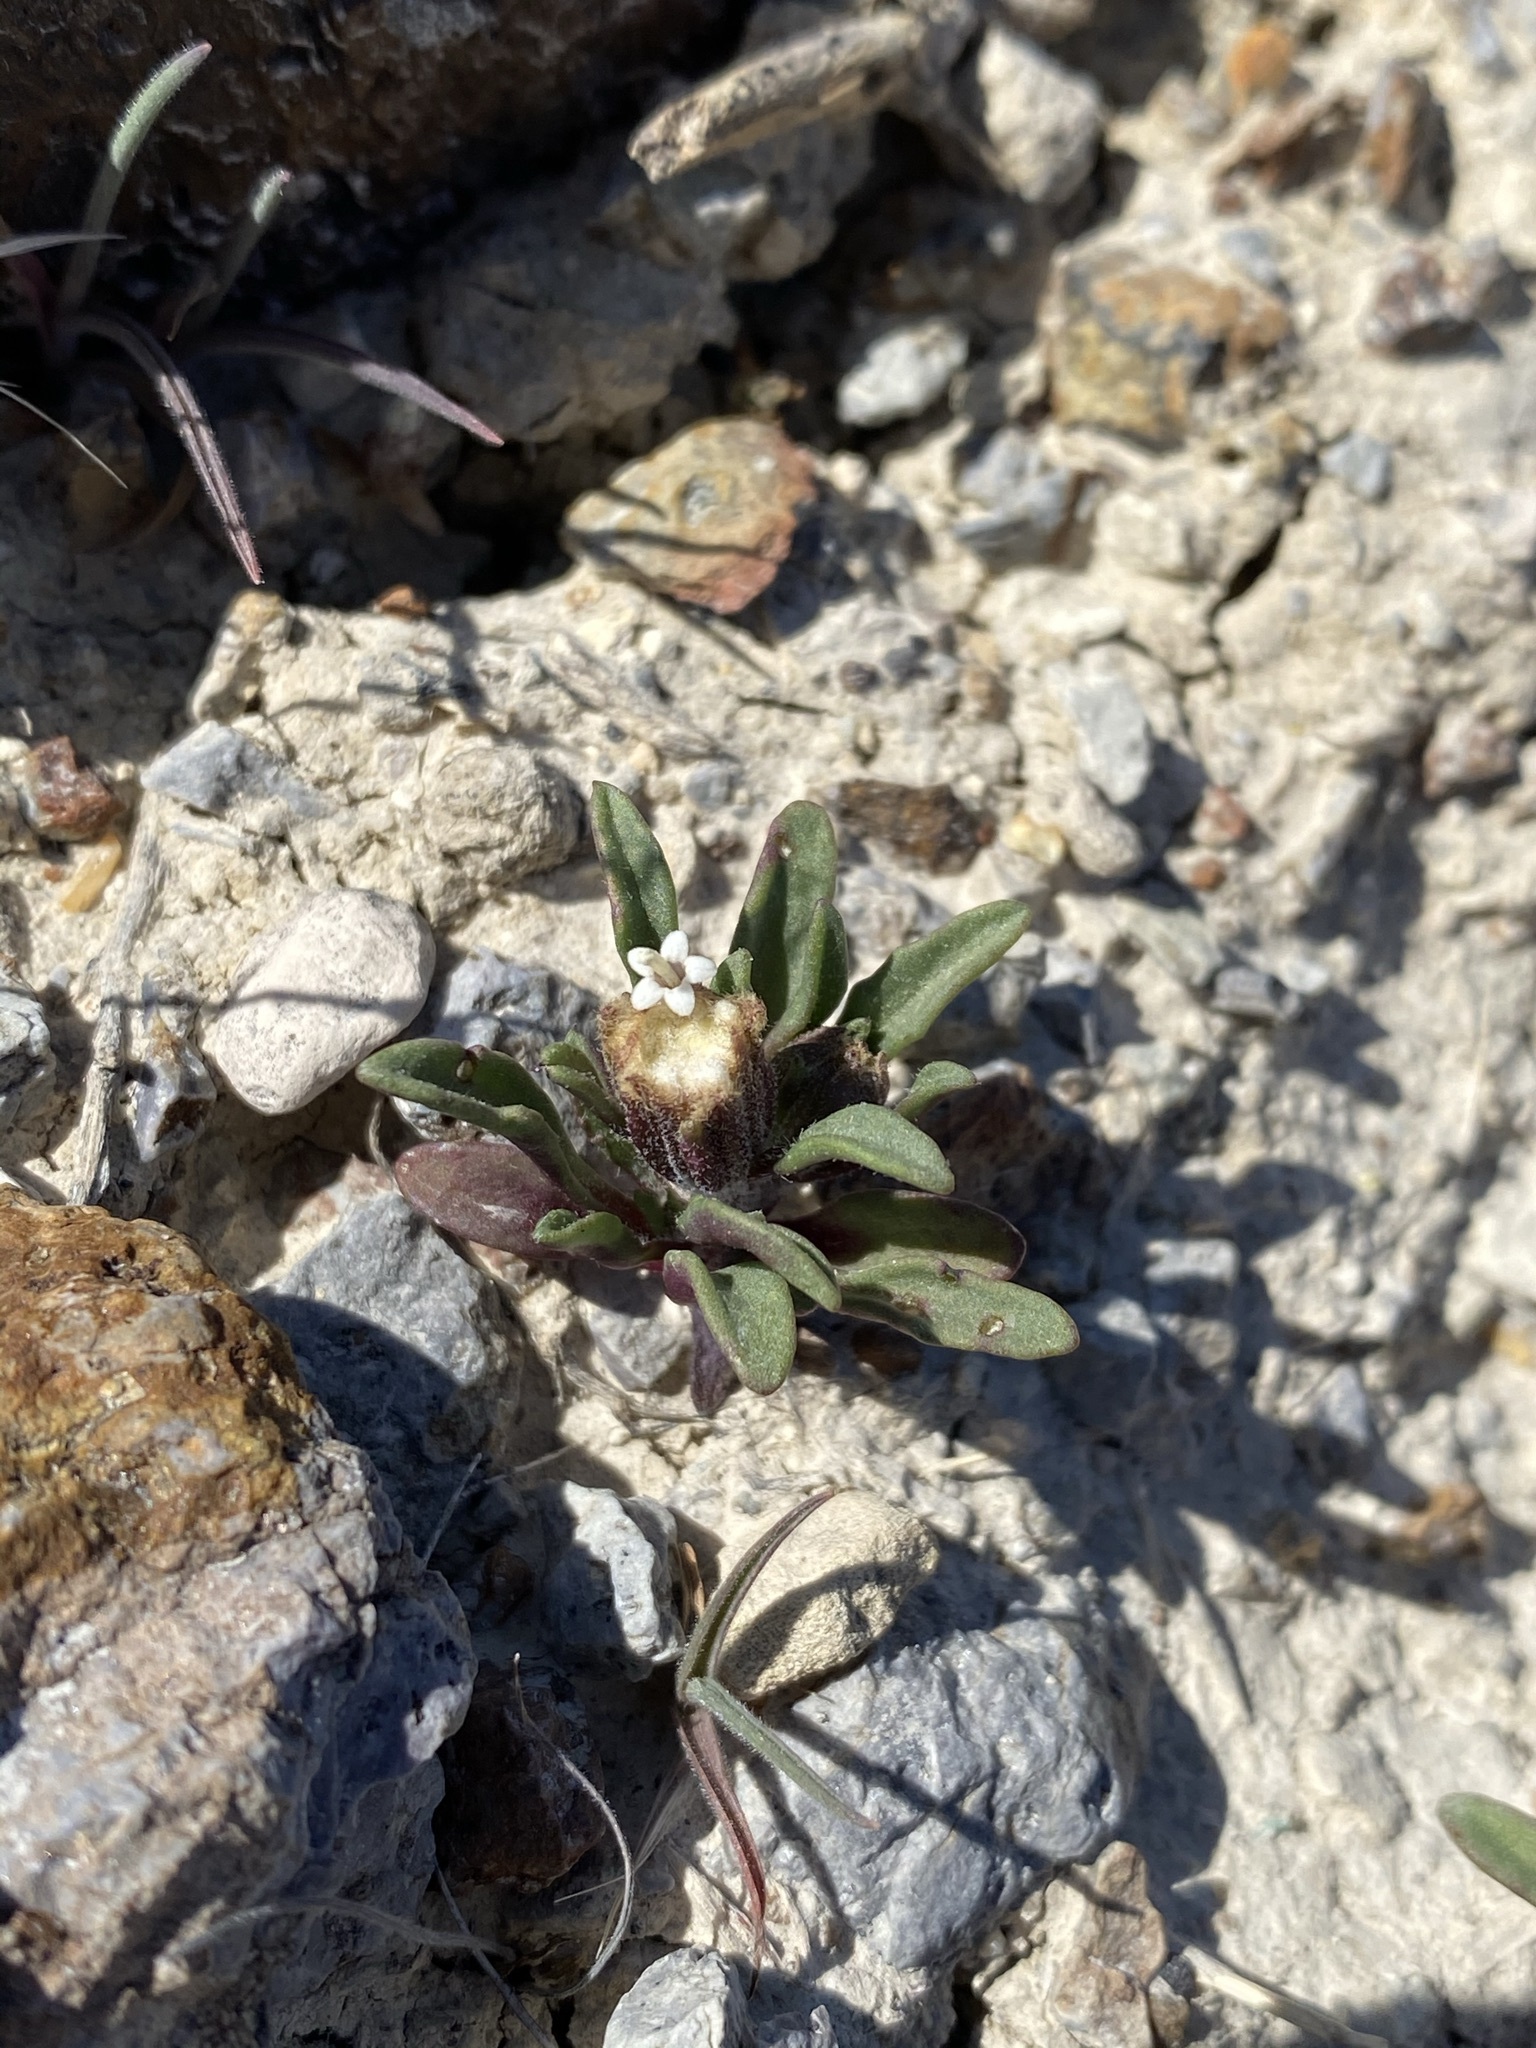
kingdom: Plantae
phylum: Tracheophyta
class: Magnoliopsida
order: Asterales
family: Asteraceae
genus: Chaenactis
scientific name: Chaenactis cusickii
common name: Cusick's pincushion
